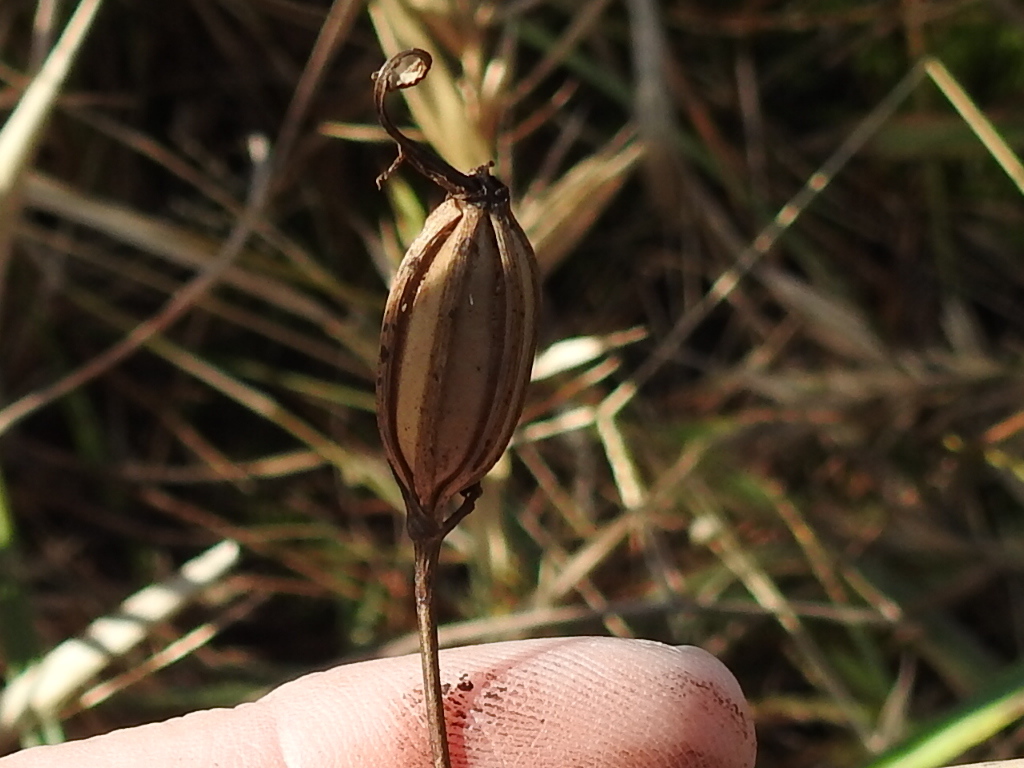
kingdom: Plantae
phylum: Tracheophyta
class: Liliopsida
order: Asparagales
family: Orchidaceae
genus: Calopogon
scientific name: Calopogon tuberosus
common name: Grass-pink
